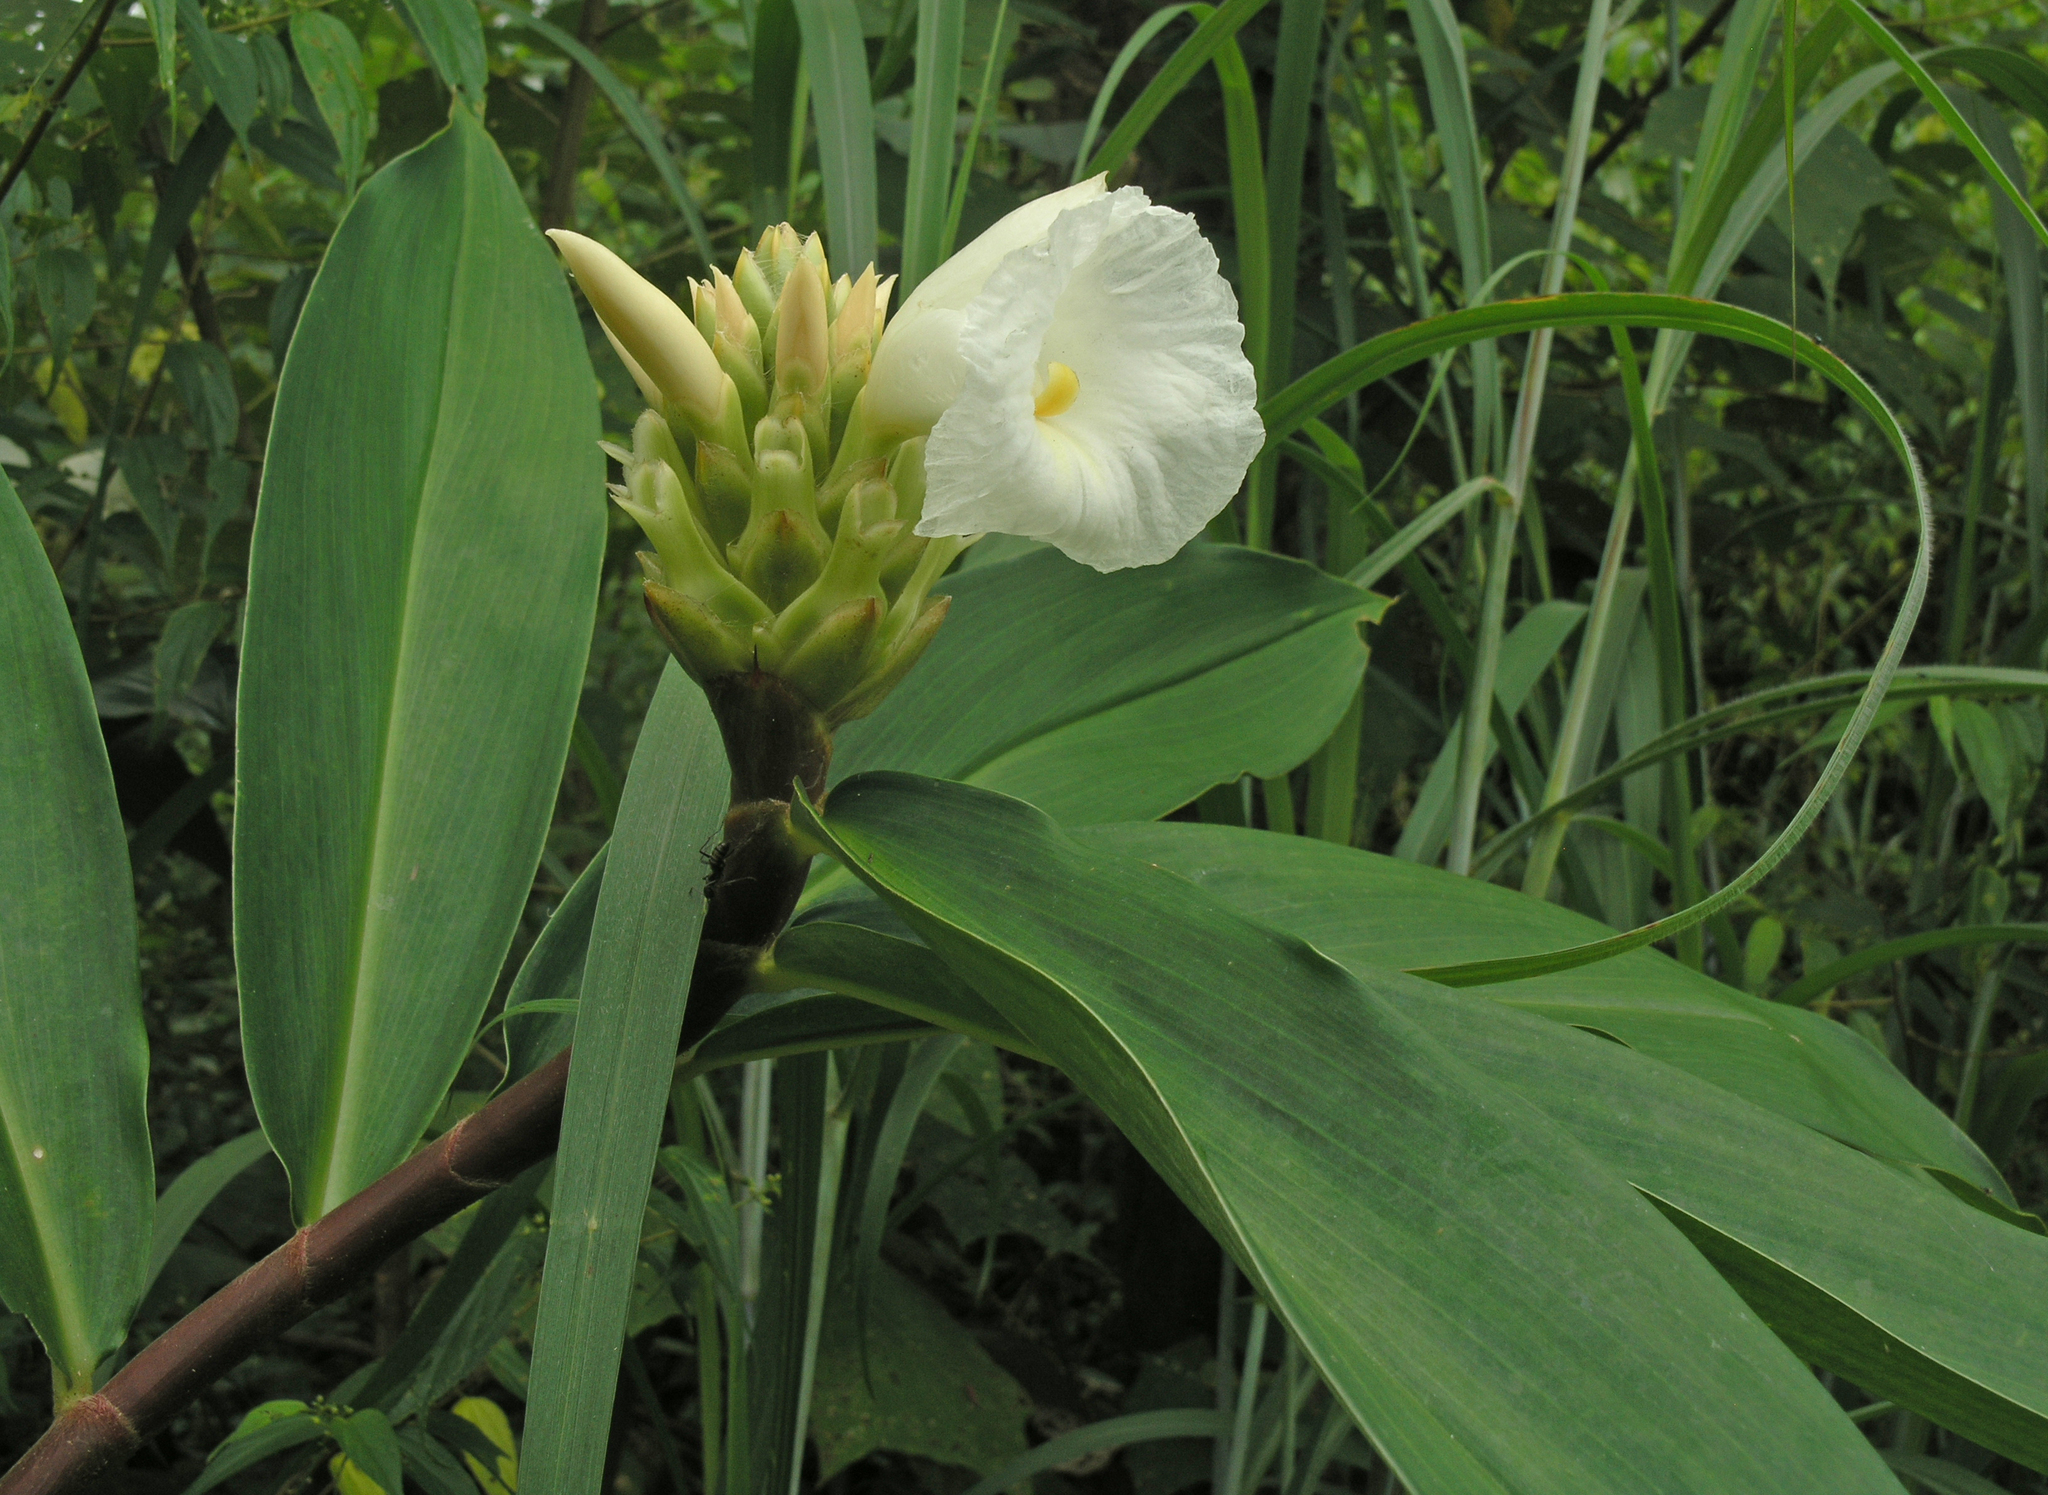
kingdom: Plantae
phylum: Tracheophyta
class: Liliopsida
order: Zingiberales
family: Costaceae
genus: Hellenia
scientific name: Hellenia speciosa
